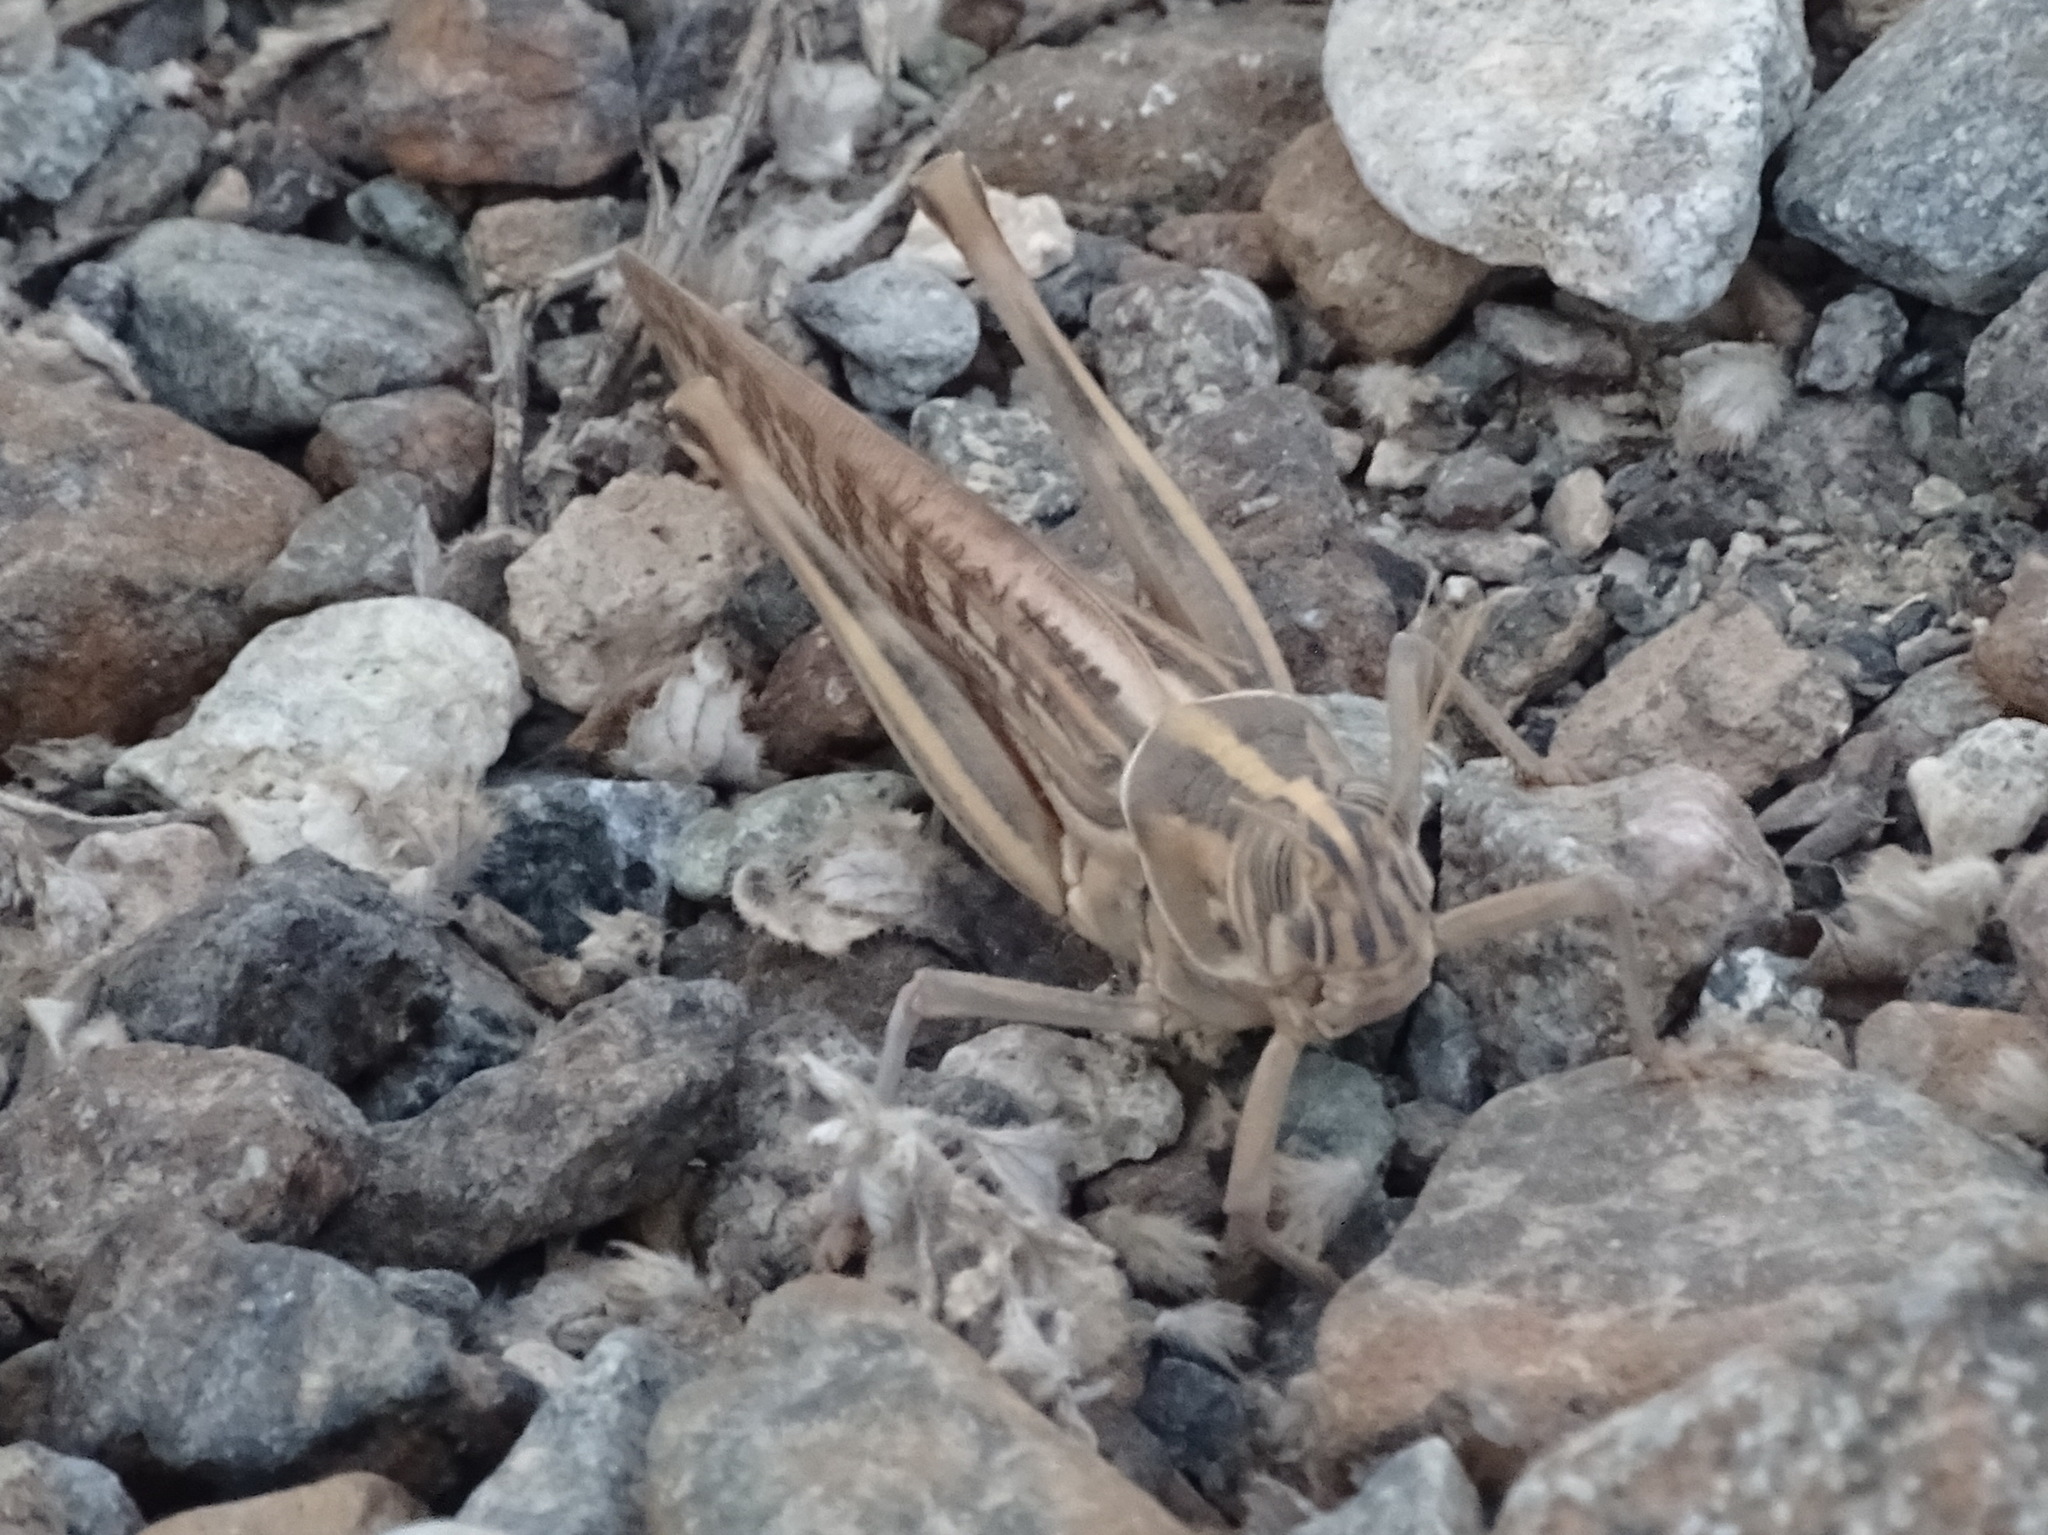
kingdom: Animalia
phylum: Arthropoda
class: Insecta
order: Orthoptera
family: Acrididae
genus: Schistocerca
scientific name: Schistocerca gregaria
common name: Desert locust
